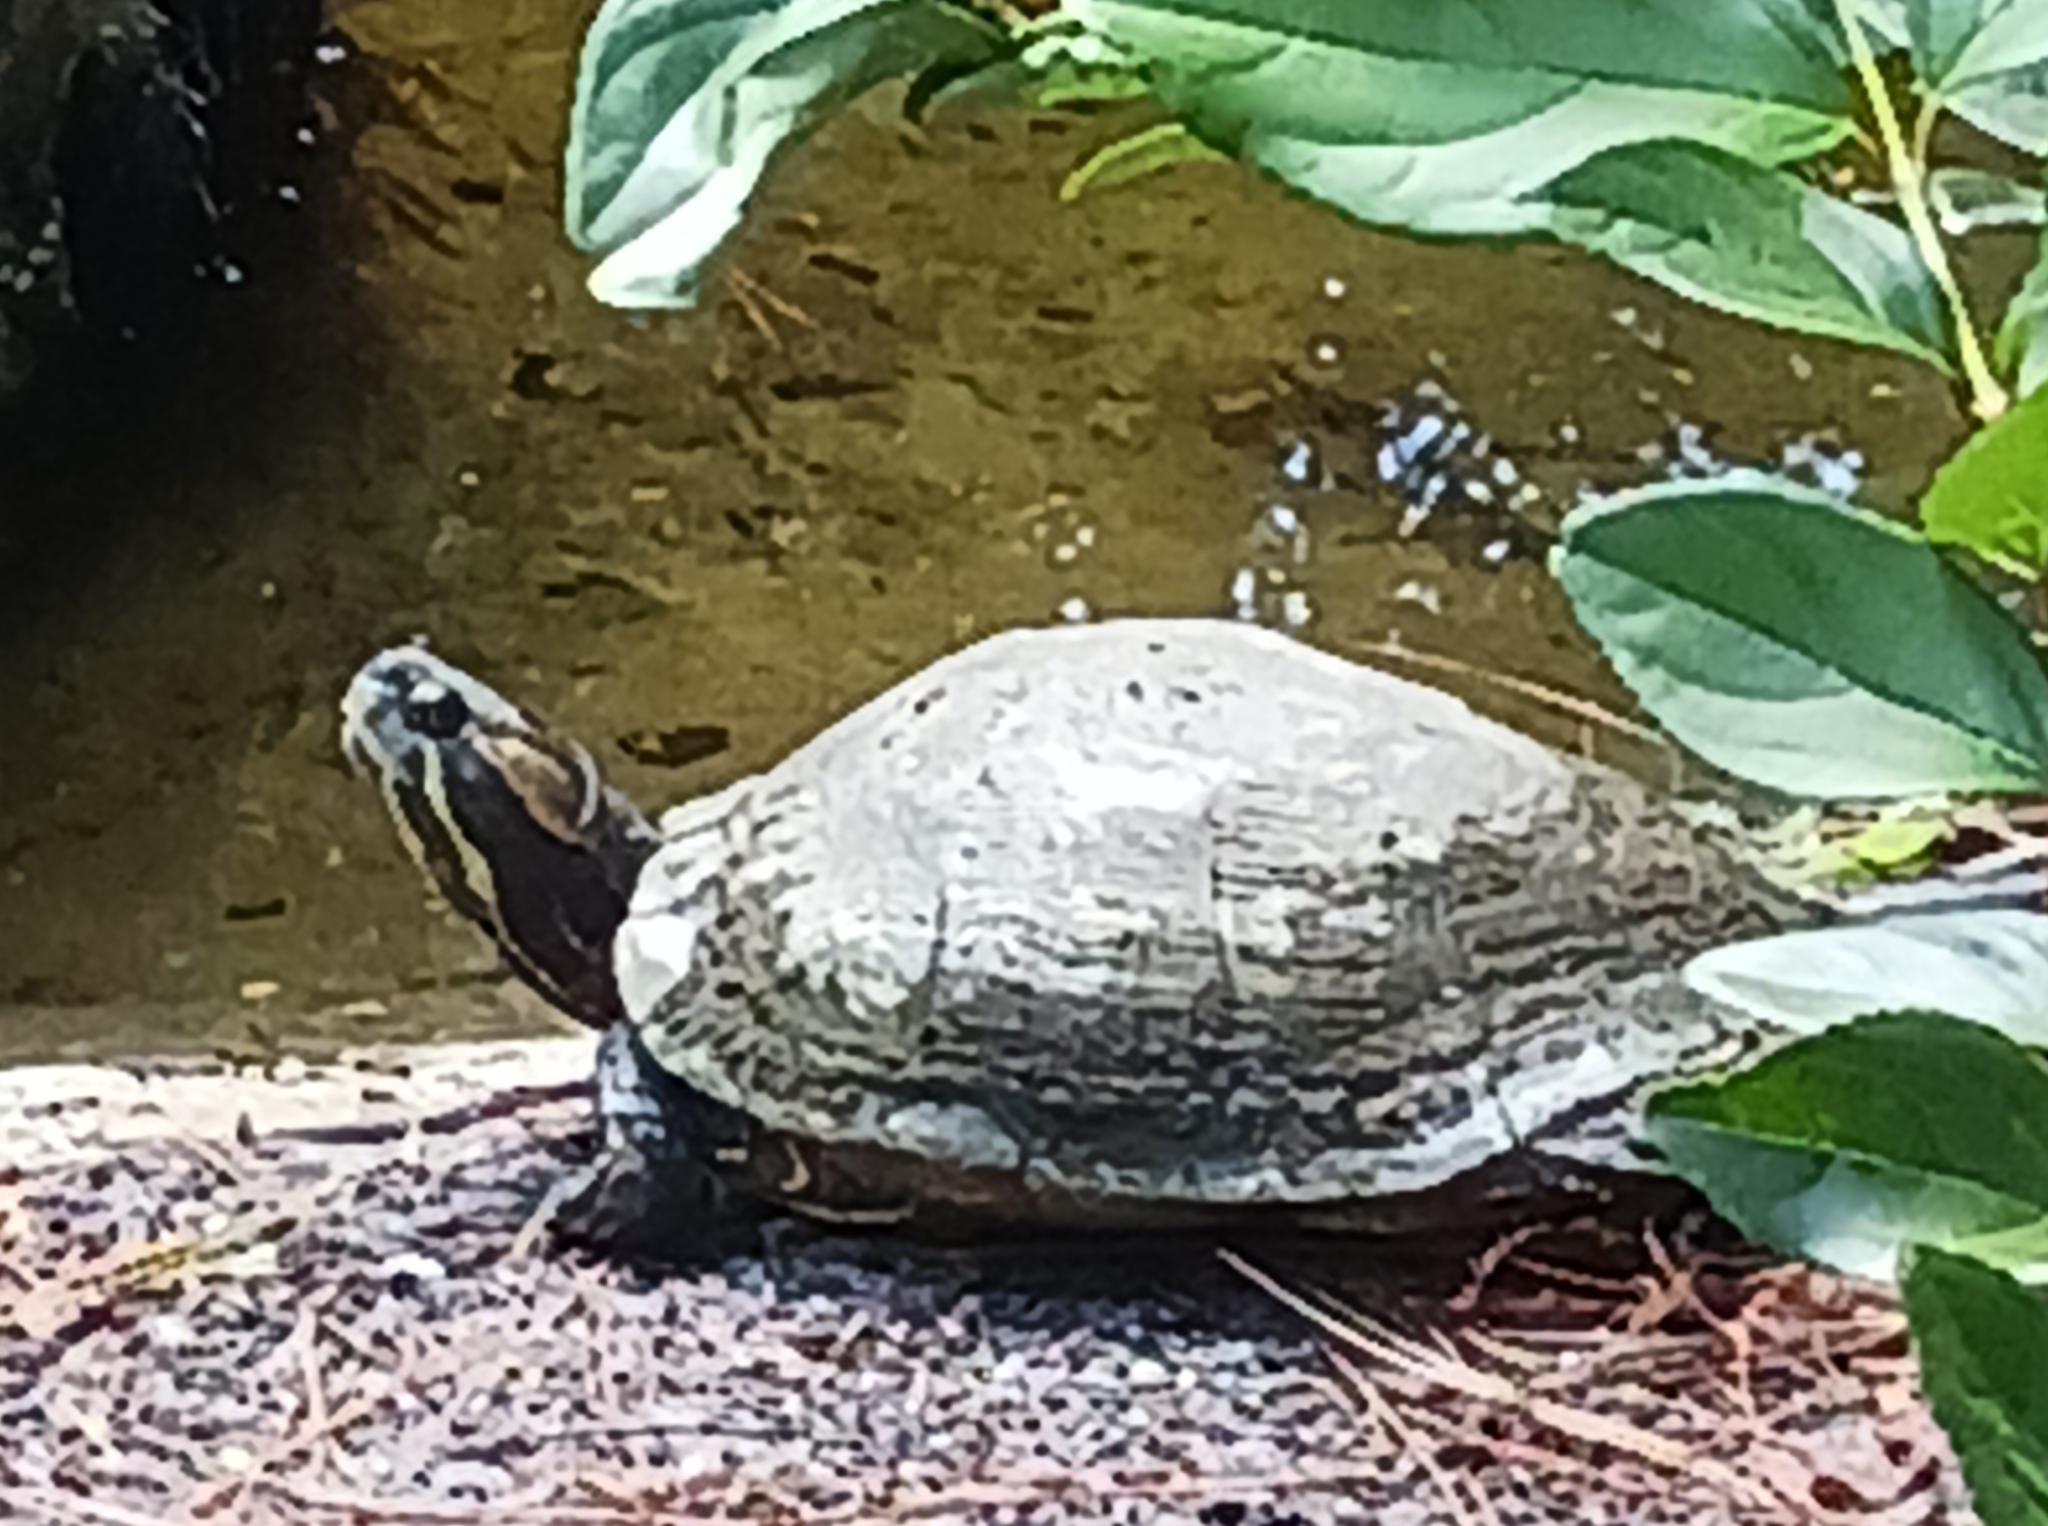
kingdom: Animalia
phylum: Chordata
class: Testudines
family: Emydidae
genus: Trachemys
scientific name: Trachemys scripta
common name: Slider
